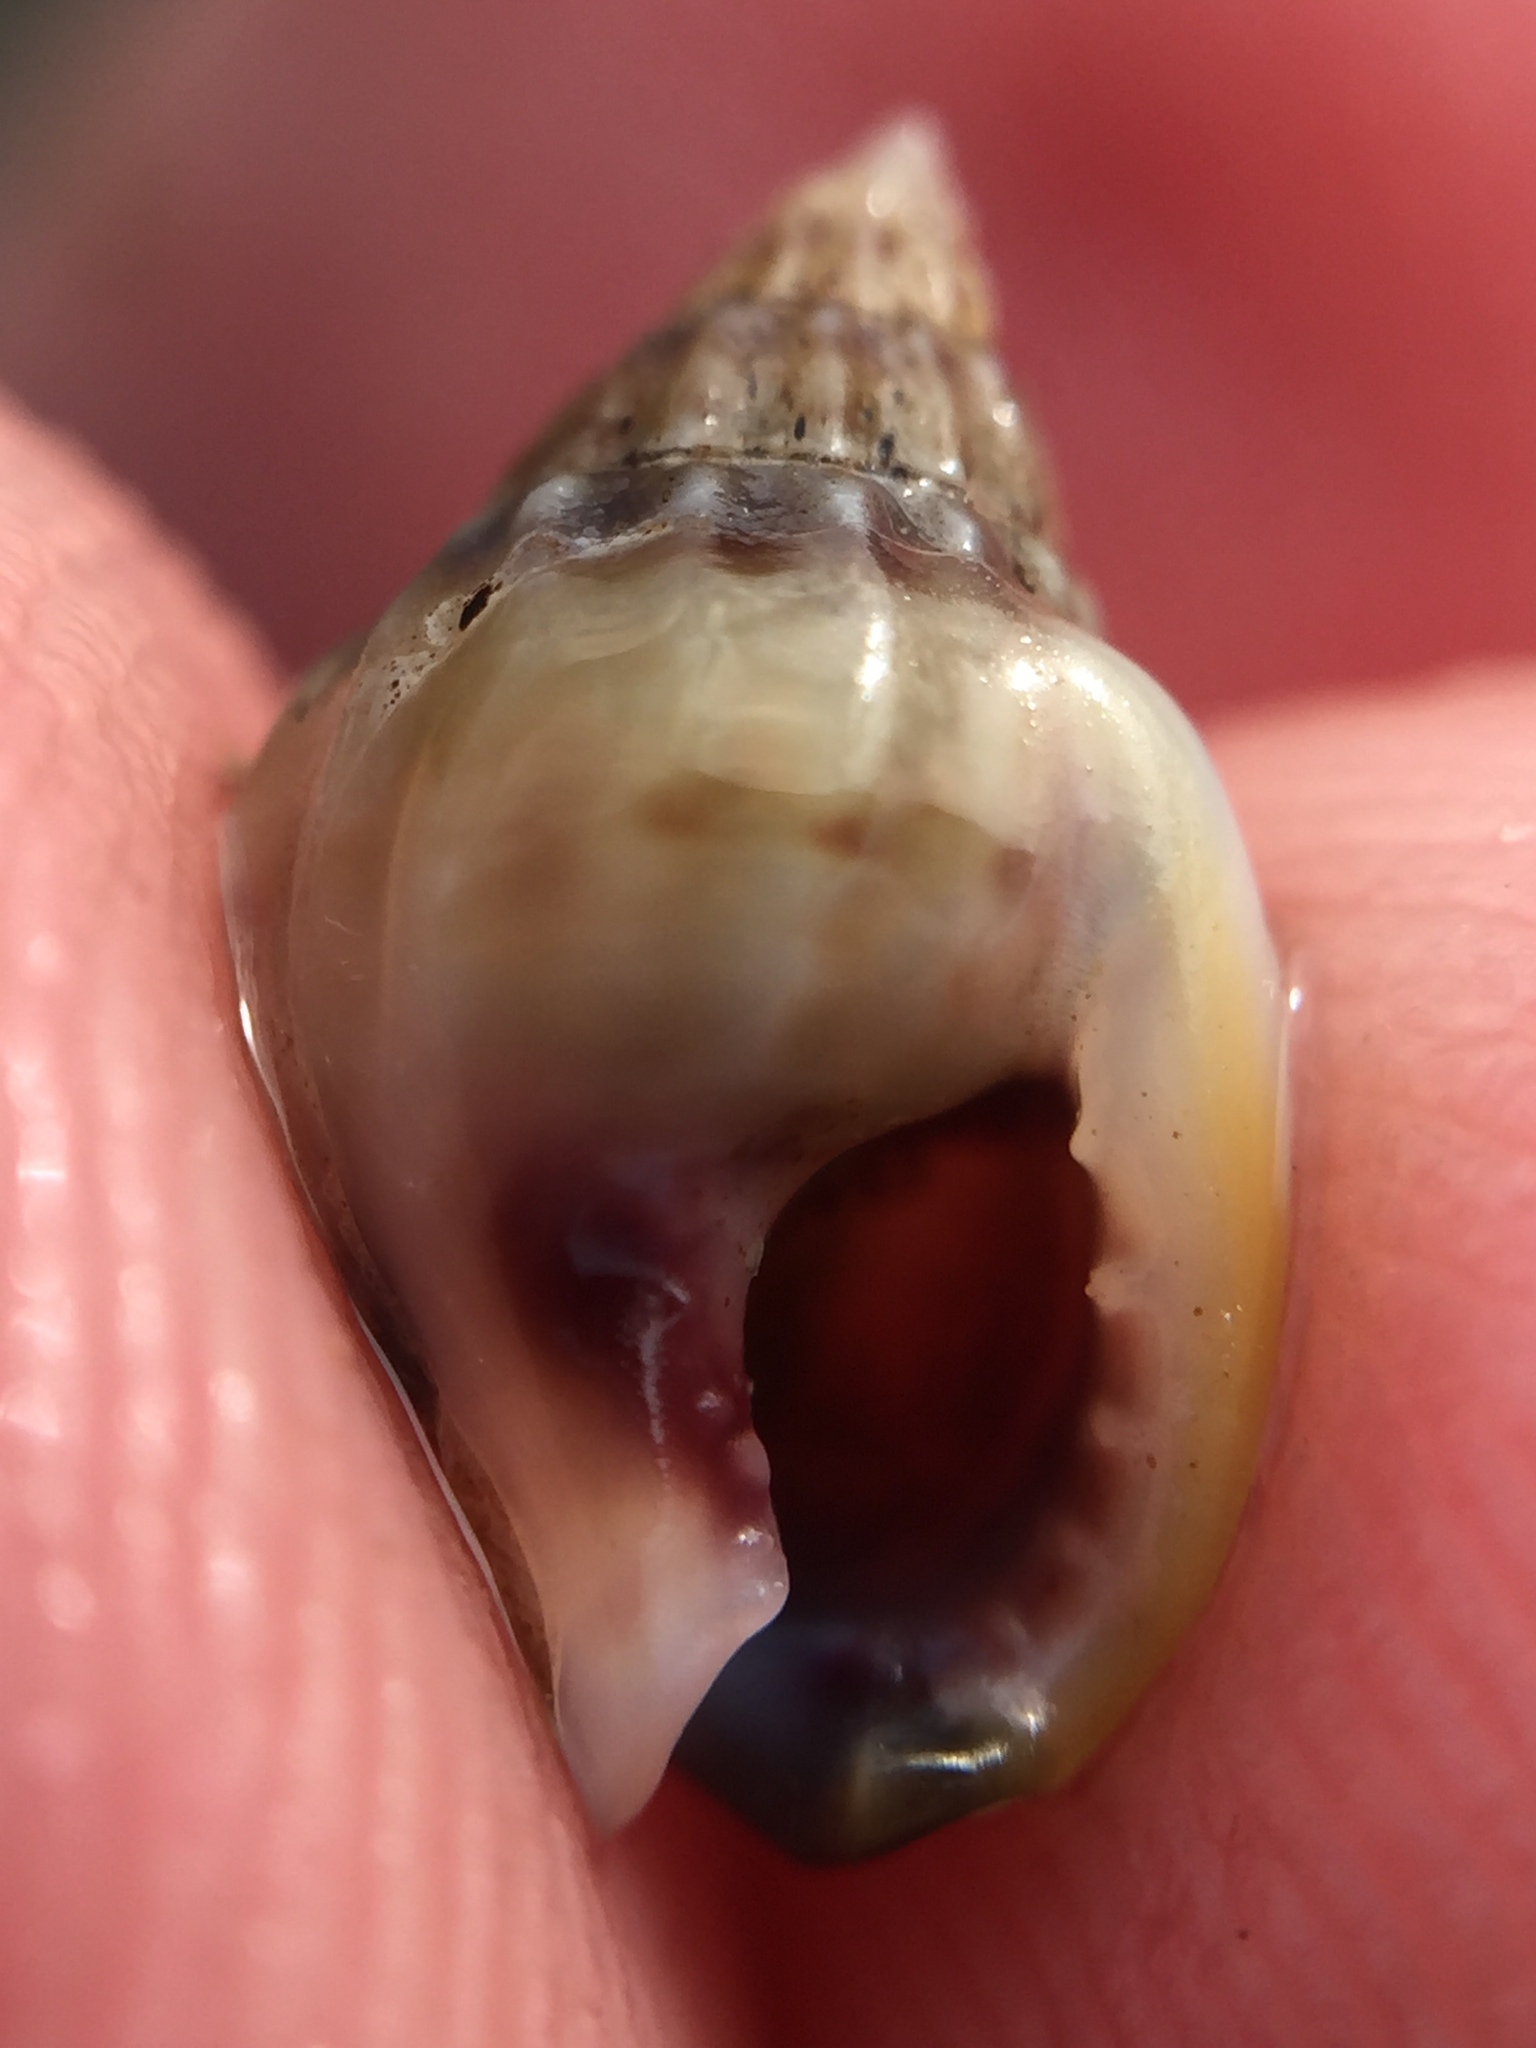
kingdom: Animalia
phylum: Mollusca
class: Gastropoda
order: Neogastropoda
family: Nassariidae
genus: Tritia
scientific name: Tritia burchardi
